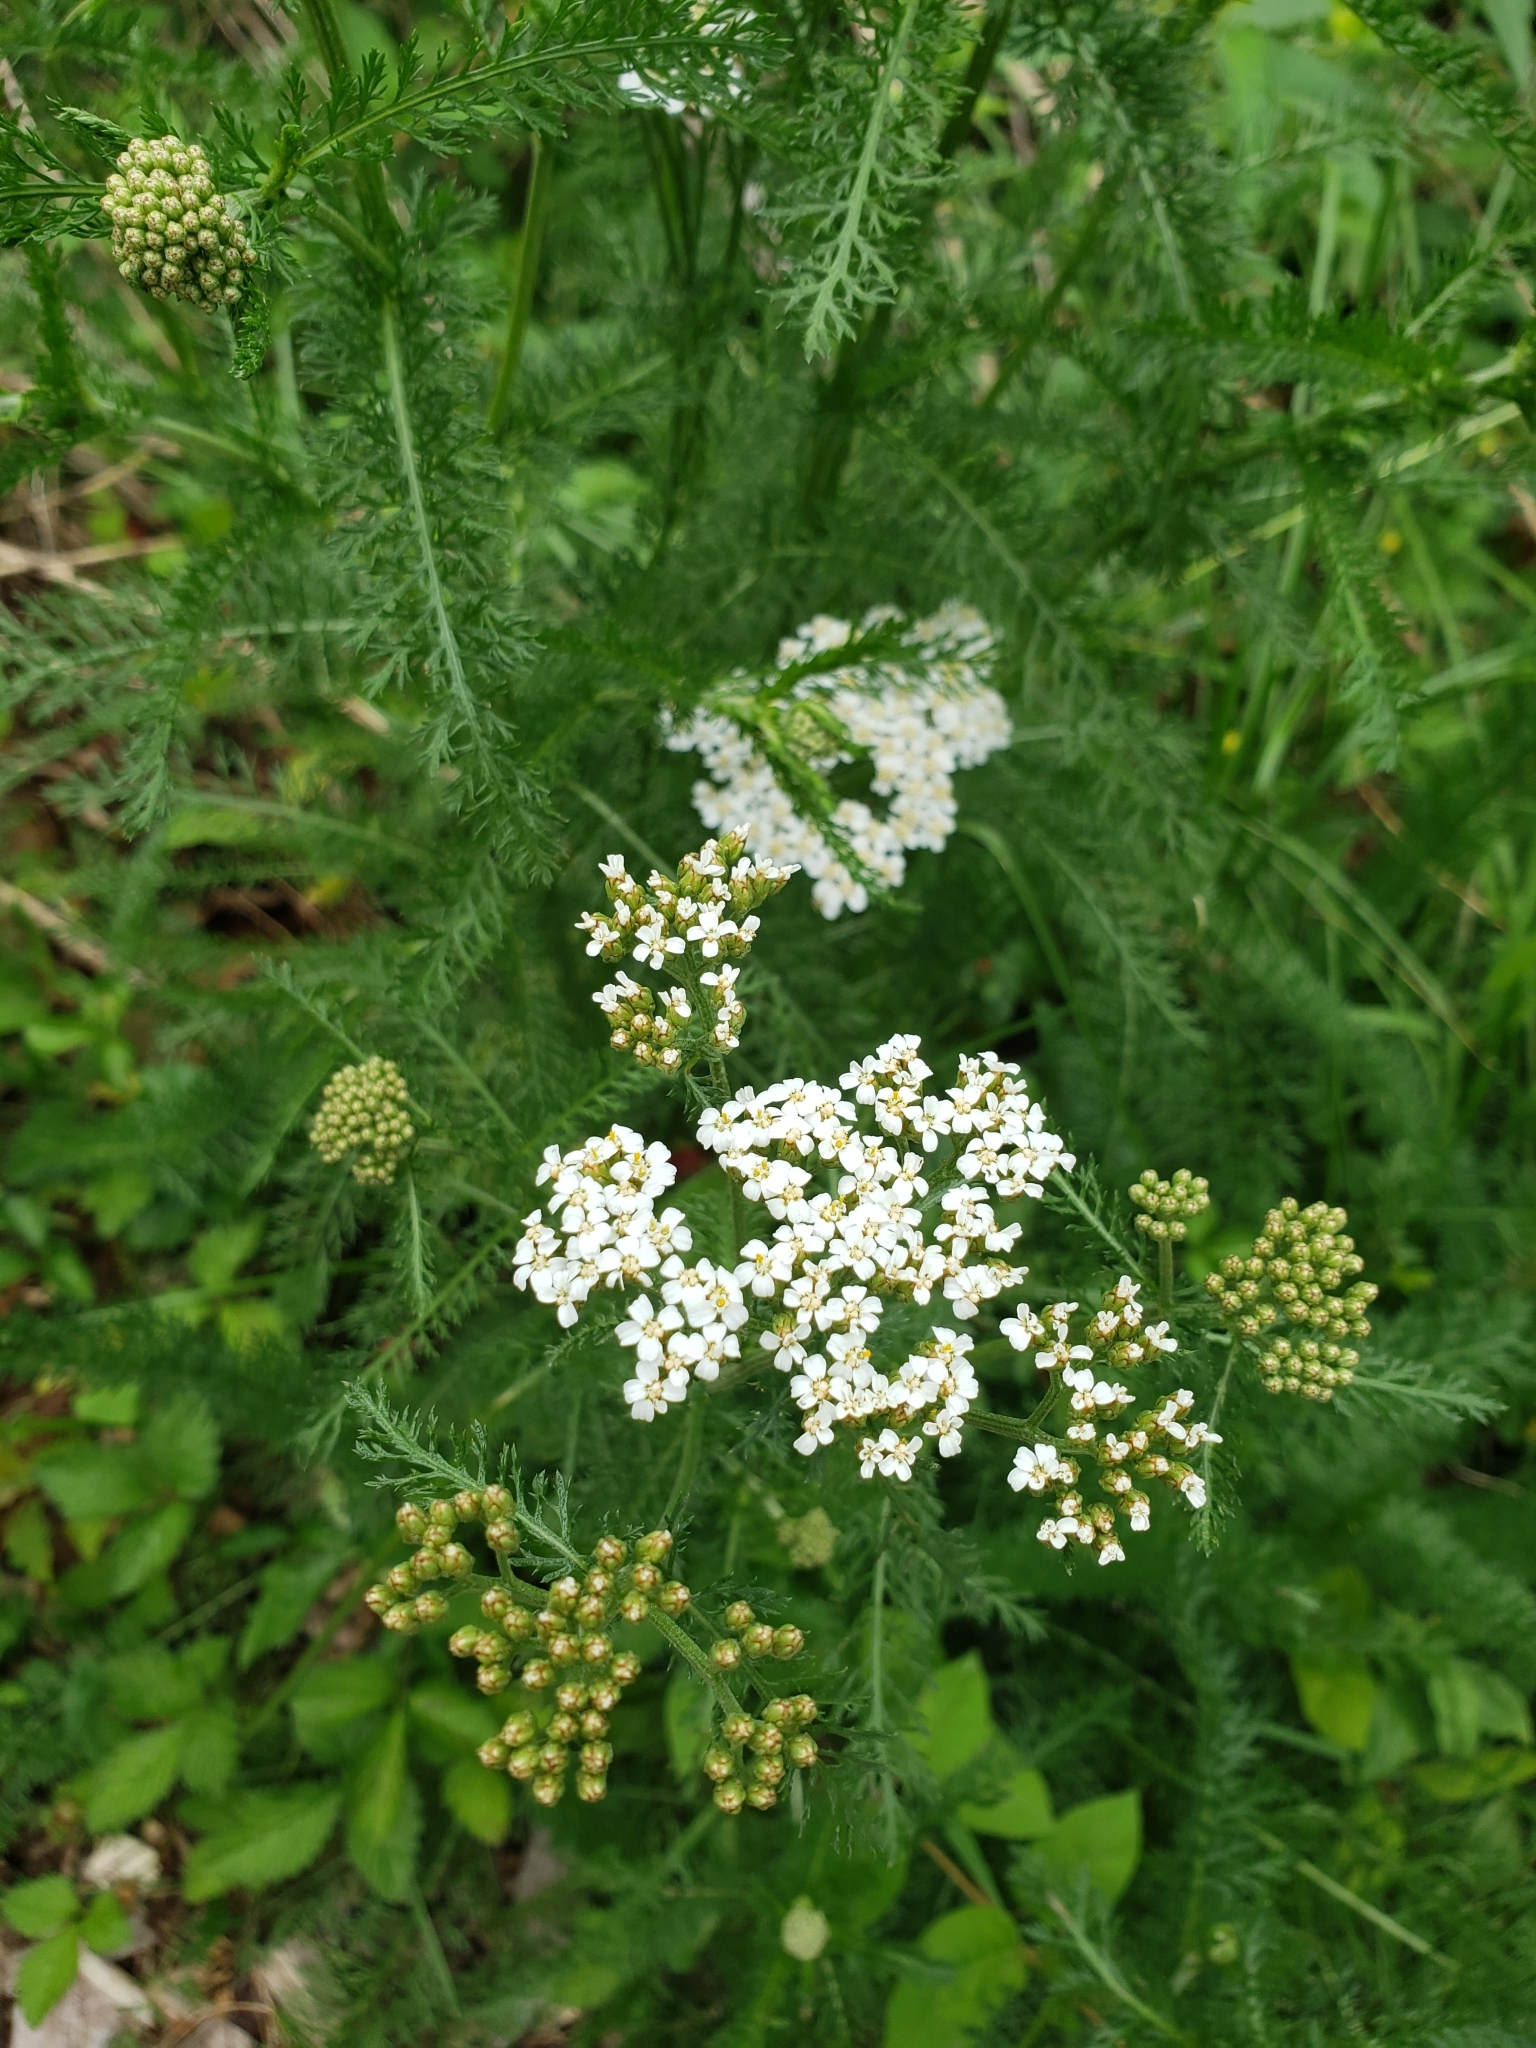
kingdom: Plantae
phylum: Tracheophyta
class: Magnoliopsida
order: Asterales
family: Asteraceae
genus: Achillea
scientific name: Achillea millefolium
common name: Yarrow
